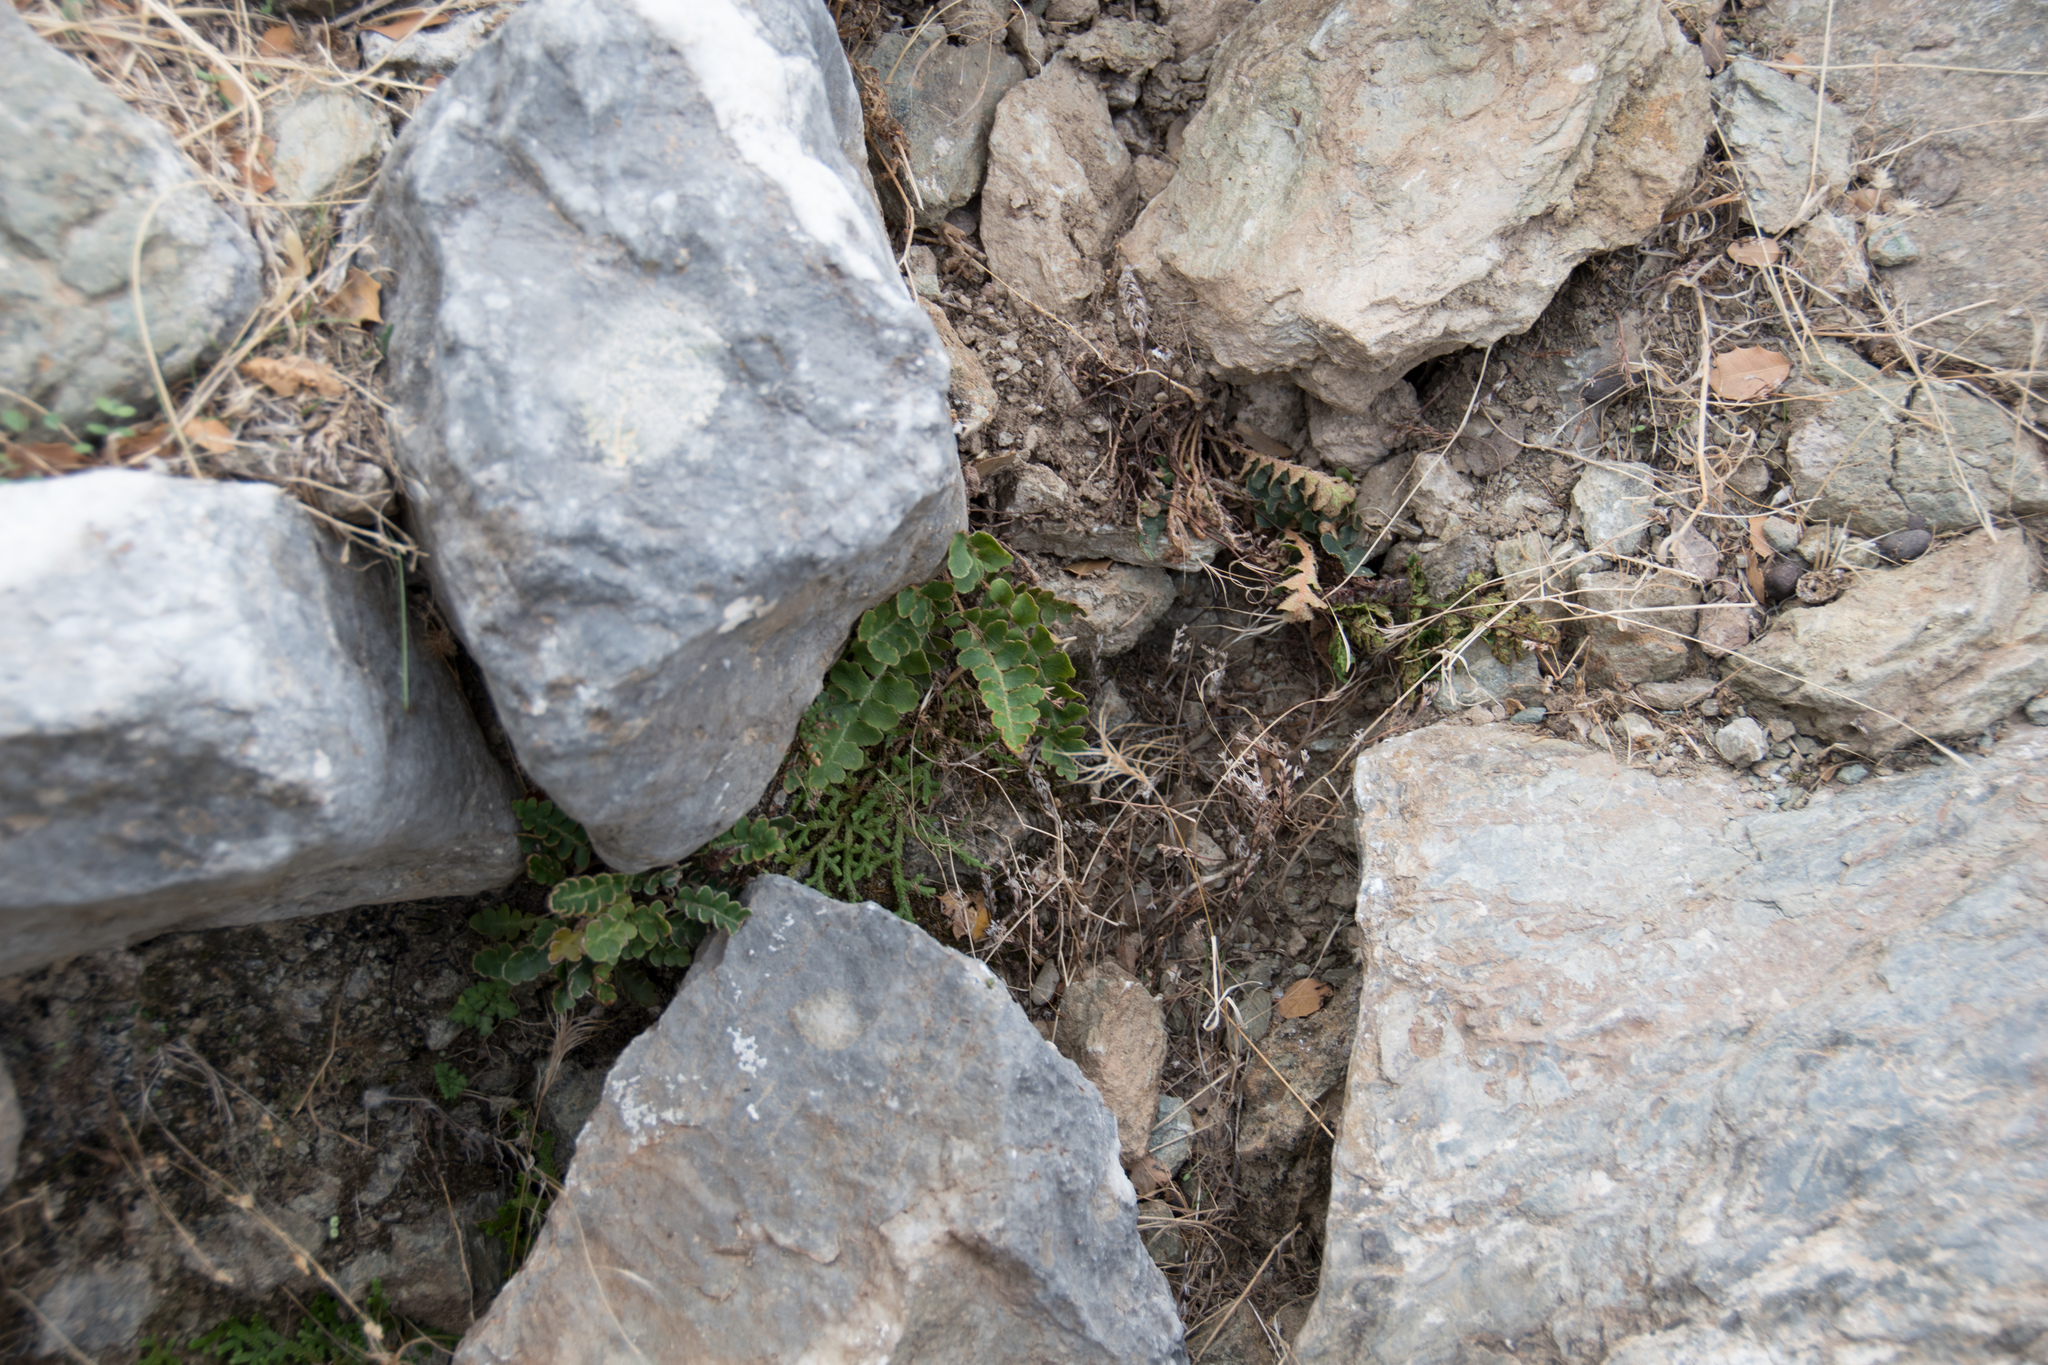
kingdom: Plantae
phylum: Tracheophyta
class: Polypodiopsida
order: Polypodiales
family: Aspleniaceae
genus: Asplenium
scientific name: Asplenium ceterach
